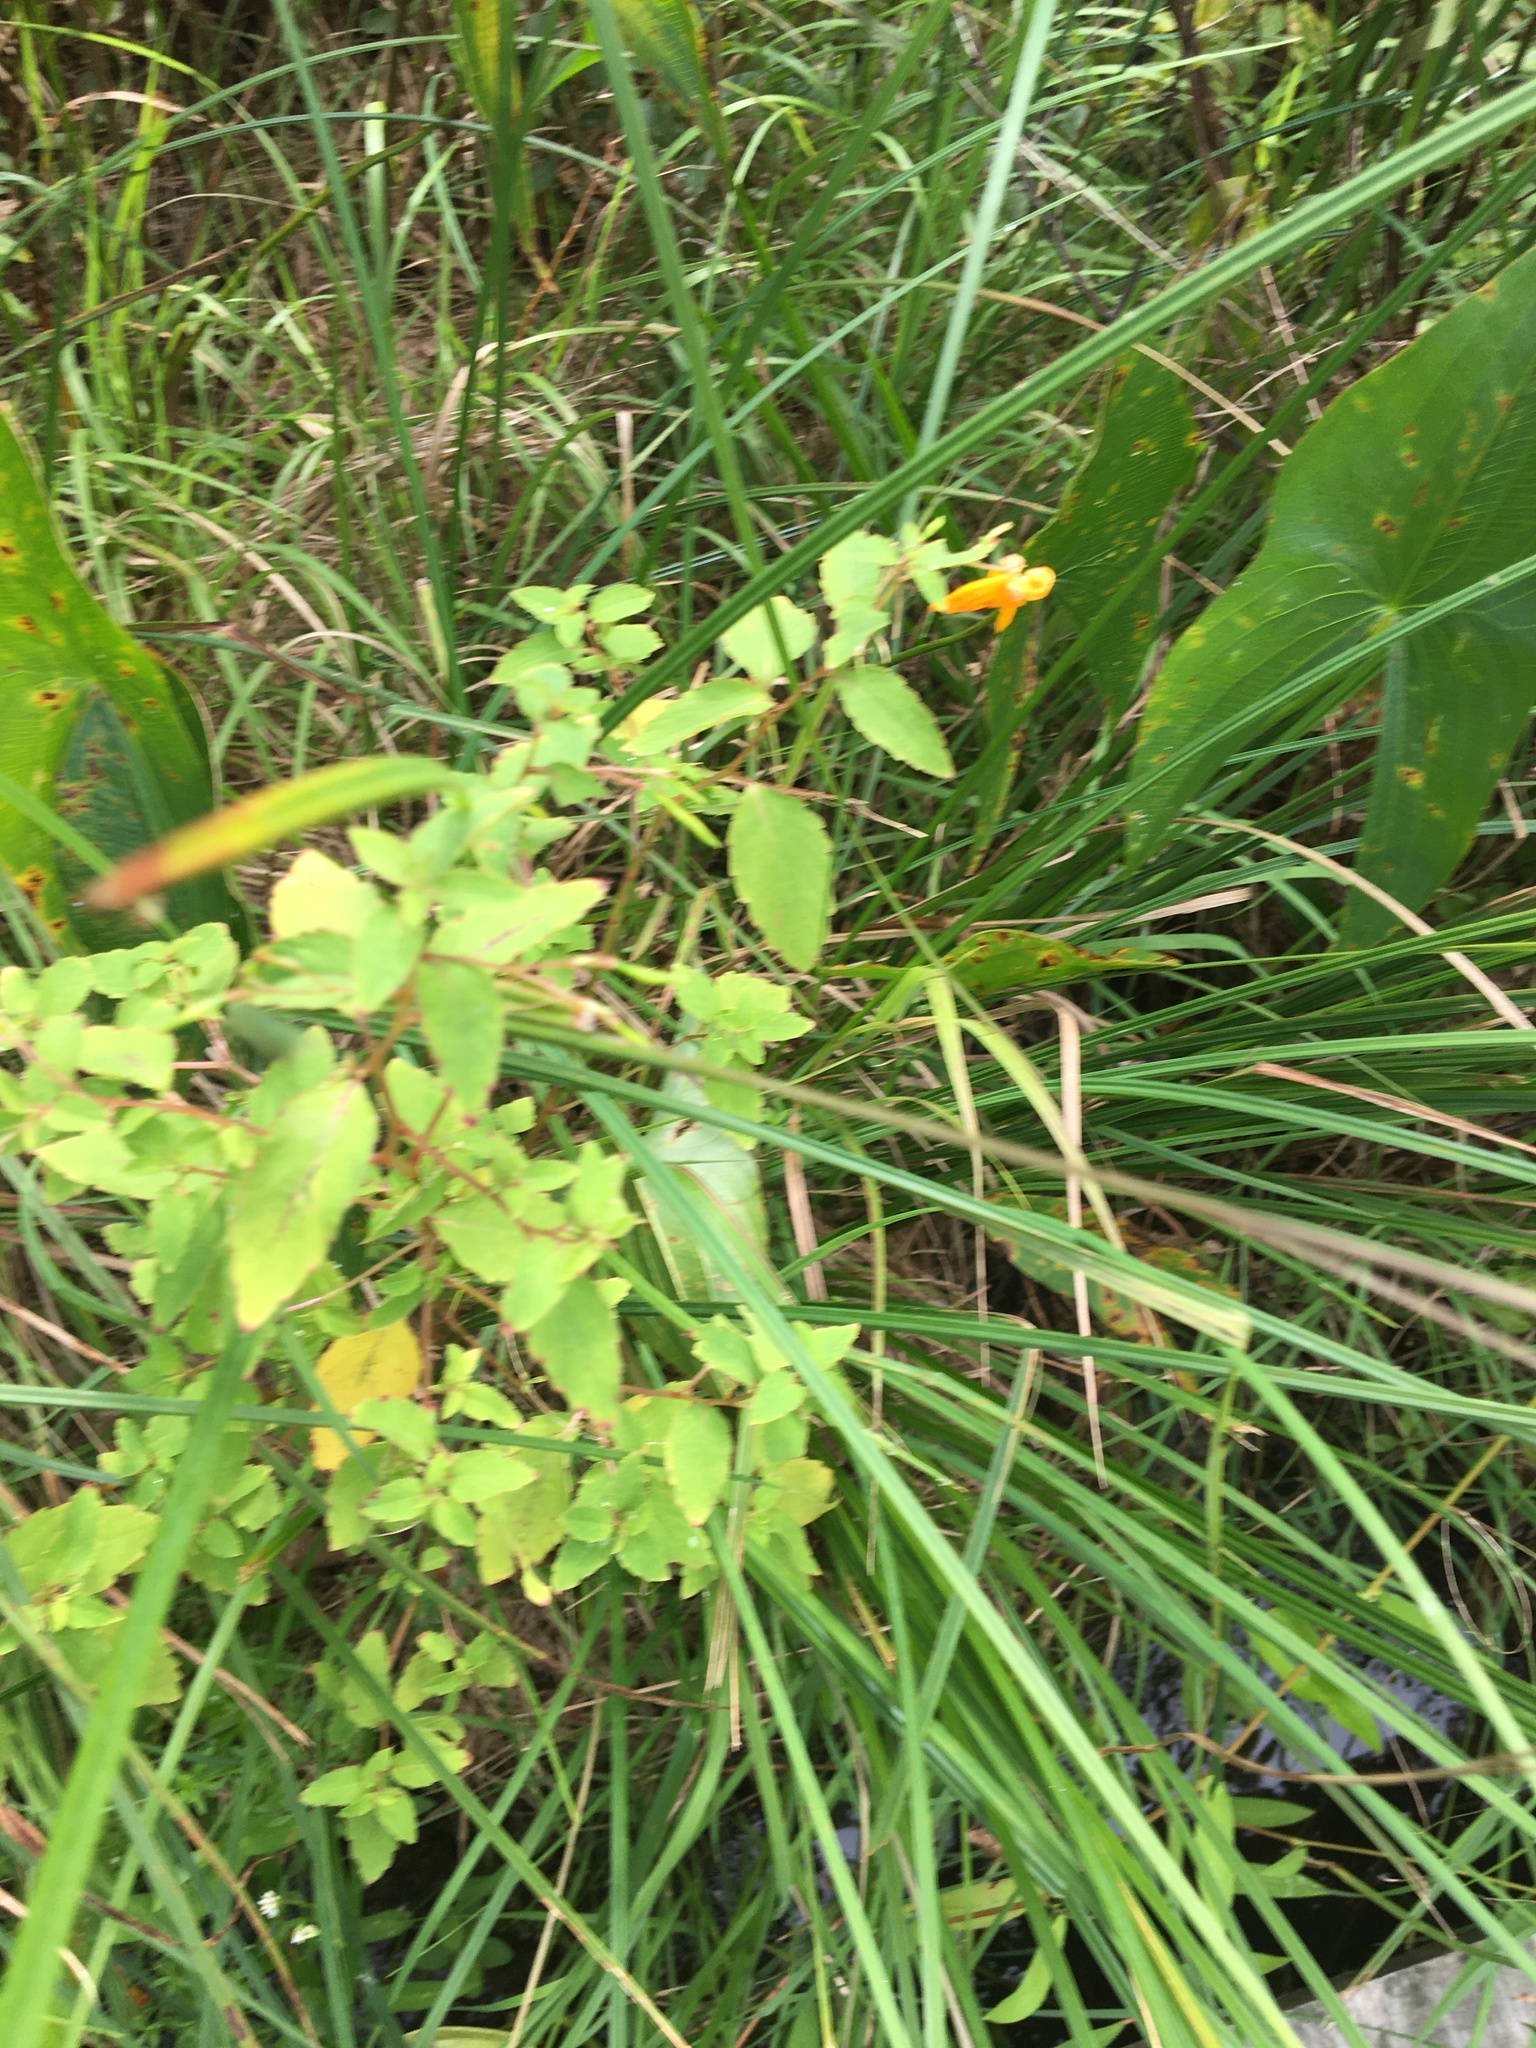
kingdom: Plantae
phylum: Tracheophyta
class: Magnoliopsida
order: Ericales
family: Balsaminaceae
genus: Impatiens
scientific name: Impatiens capensis
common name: Orange balsam
